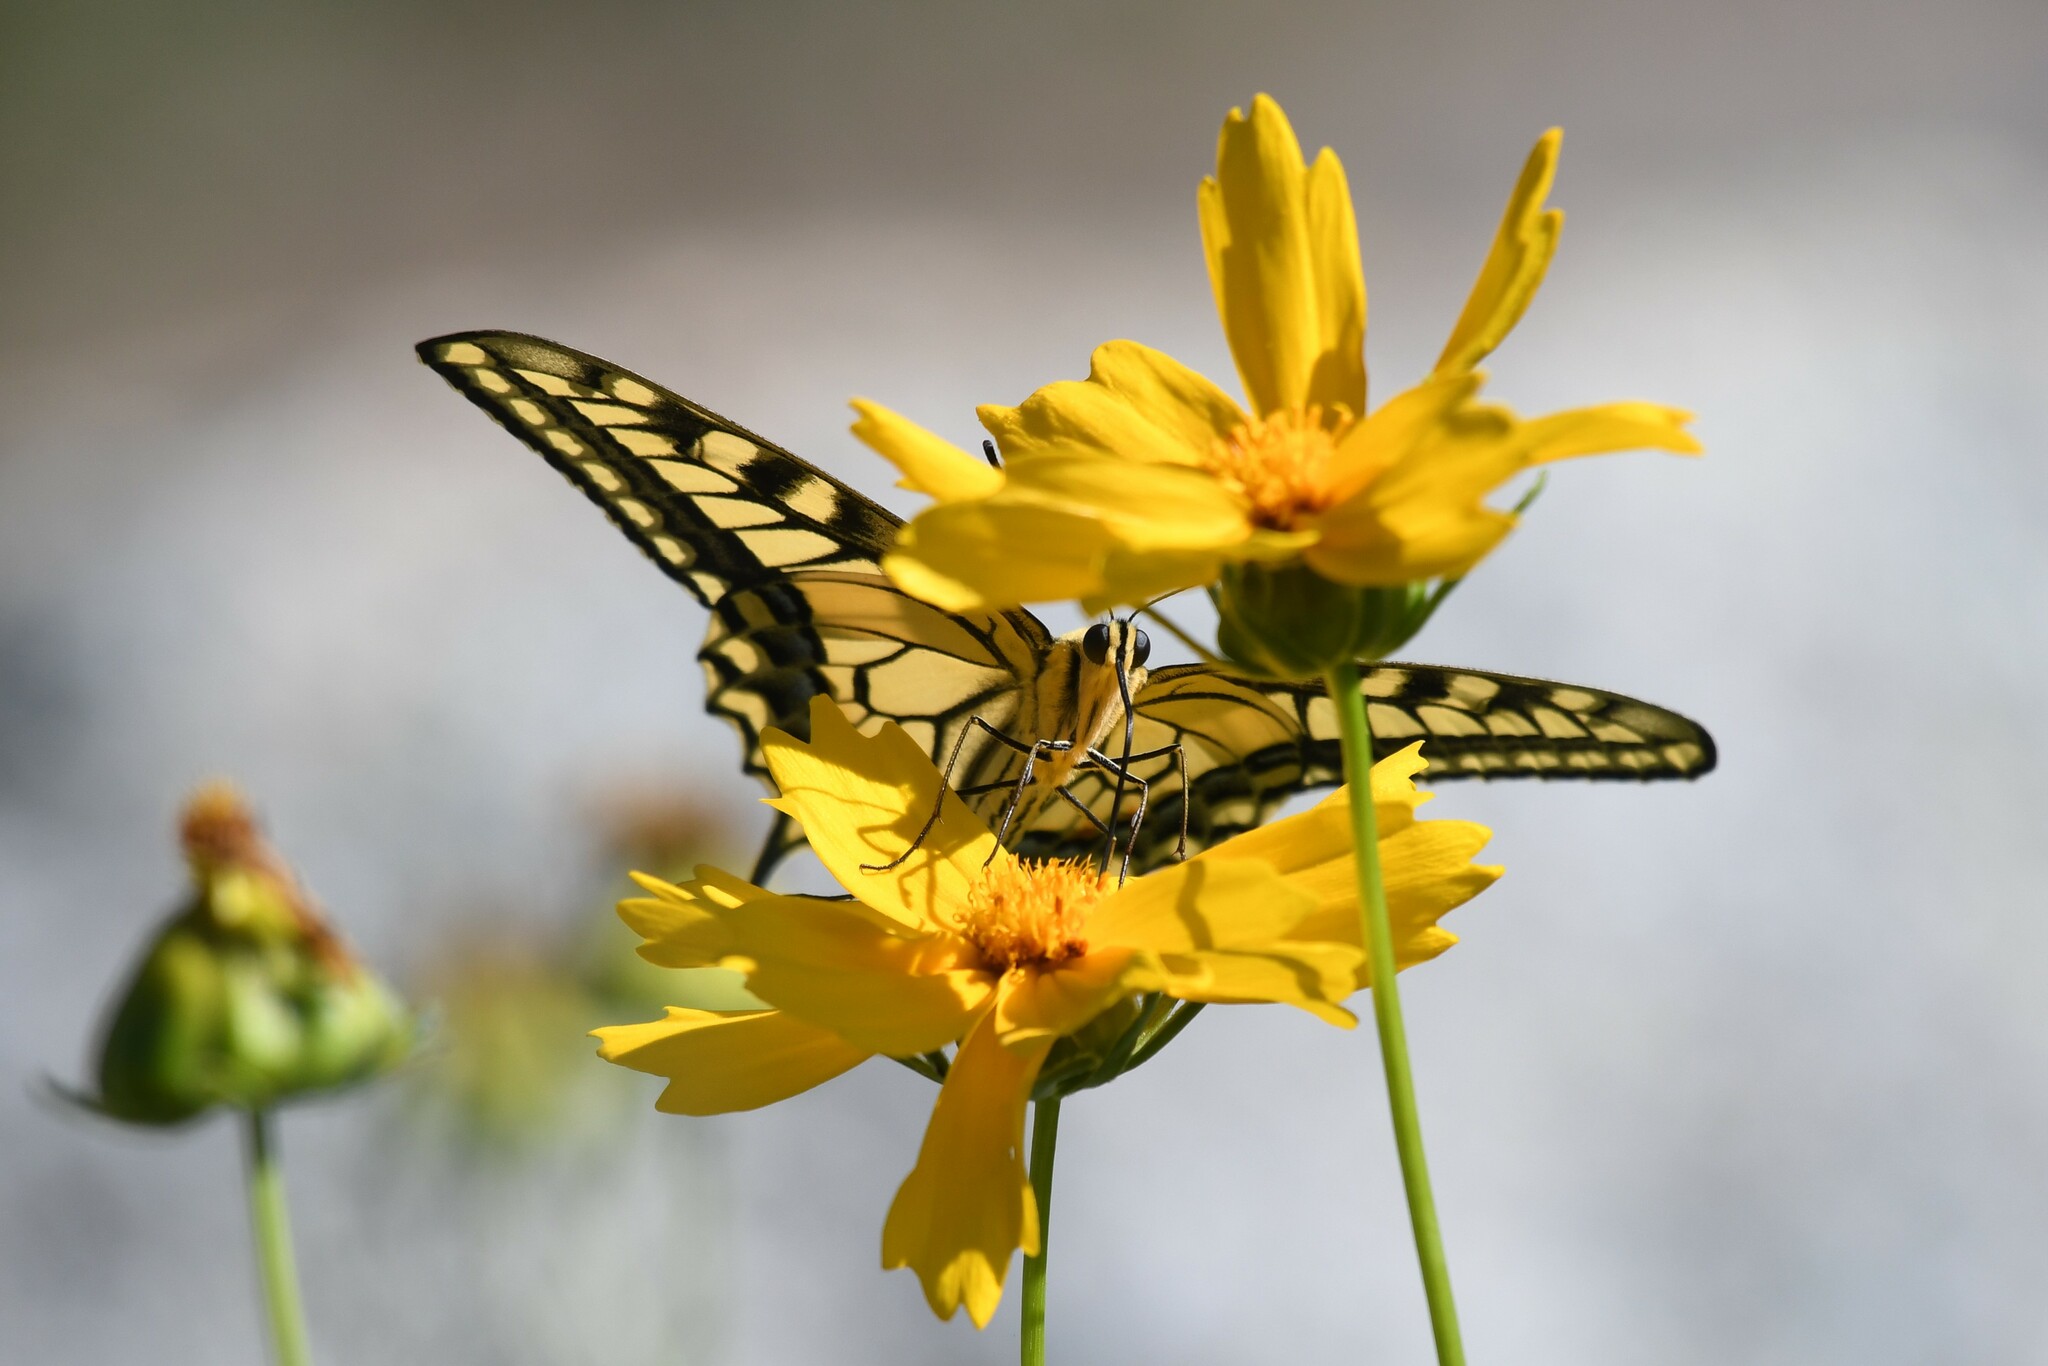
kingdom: Animalia
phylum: Arthropoda
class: Insecta
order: Lepidoptera
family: Papilionidae
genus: Papilio
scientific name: Papilio
